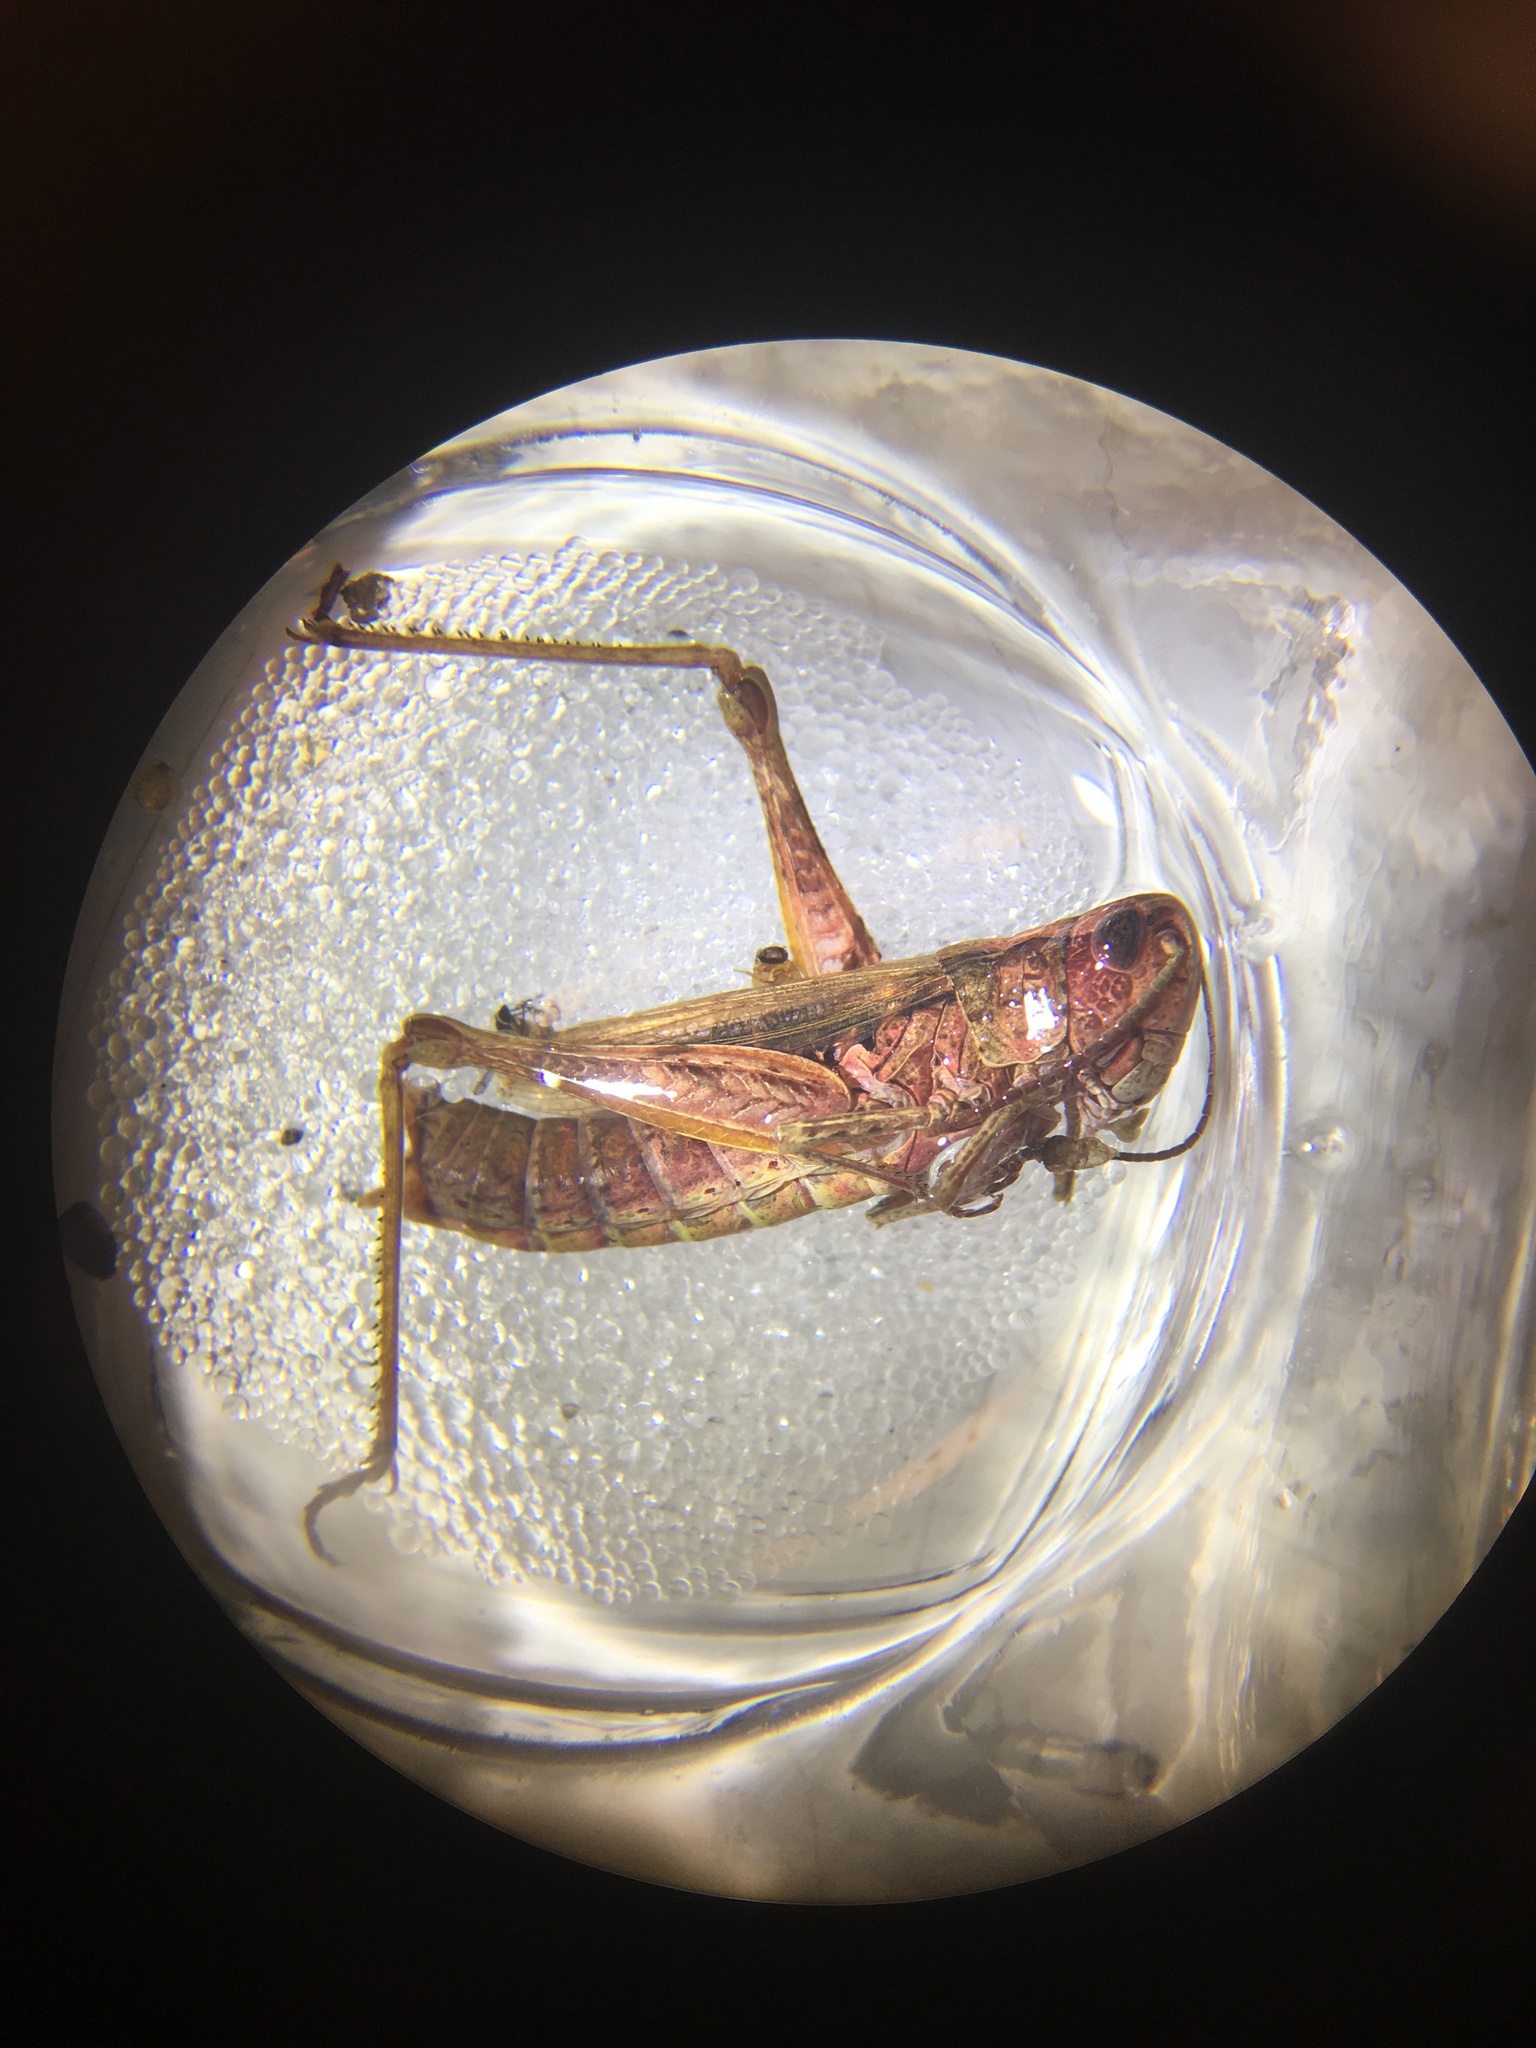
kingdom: Animalia
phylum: Arthropoda
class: Insecta
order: Orthoptera
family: Acrididae
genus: Chorthippus
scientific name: Chorthippus apricarius
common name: Upland field grasshopper
